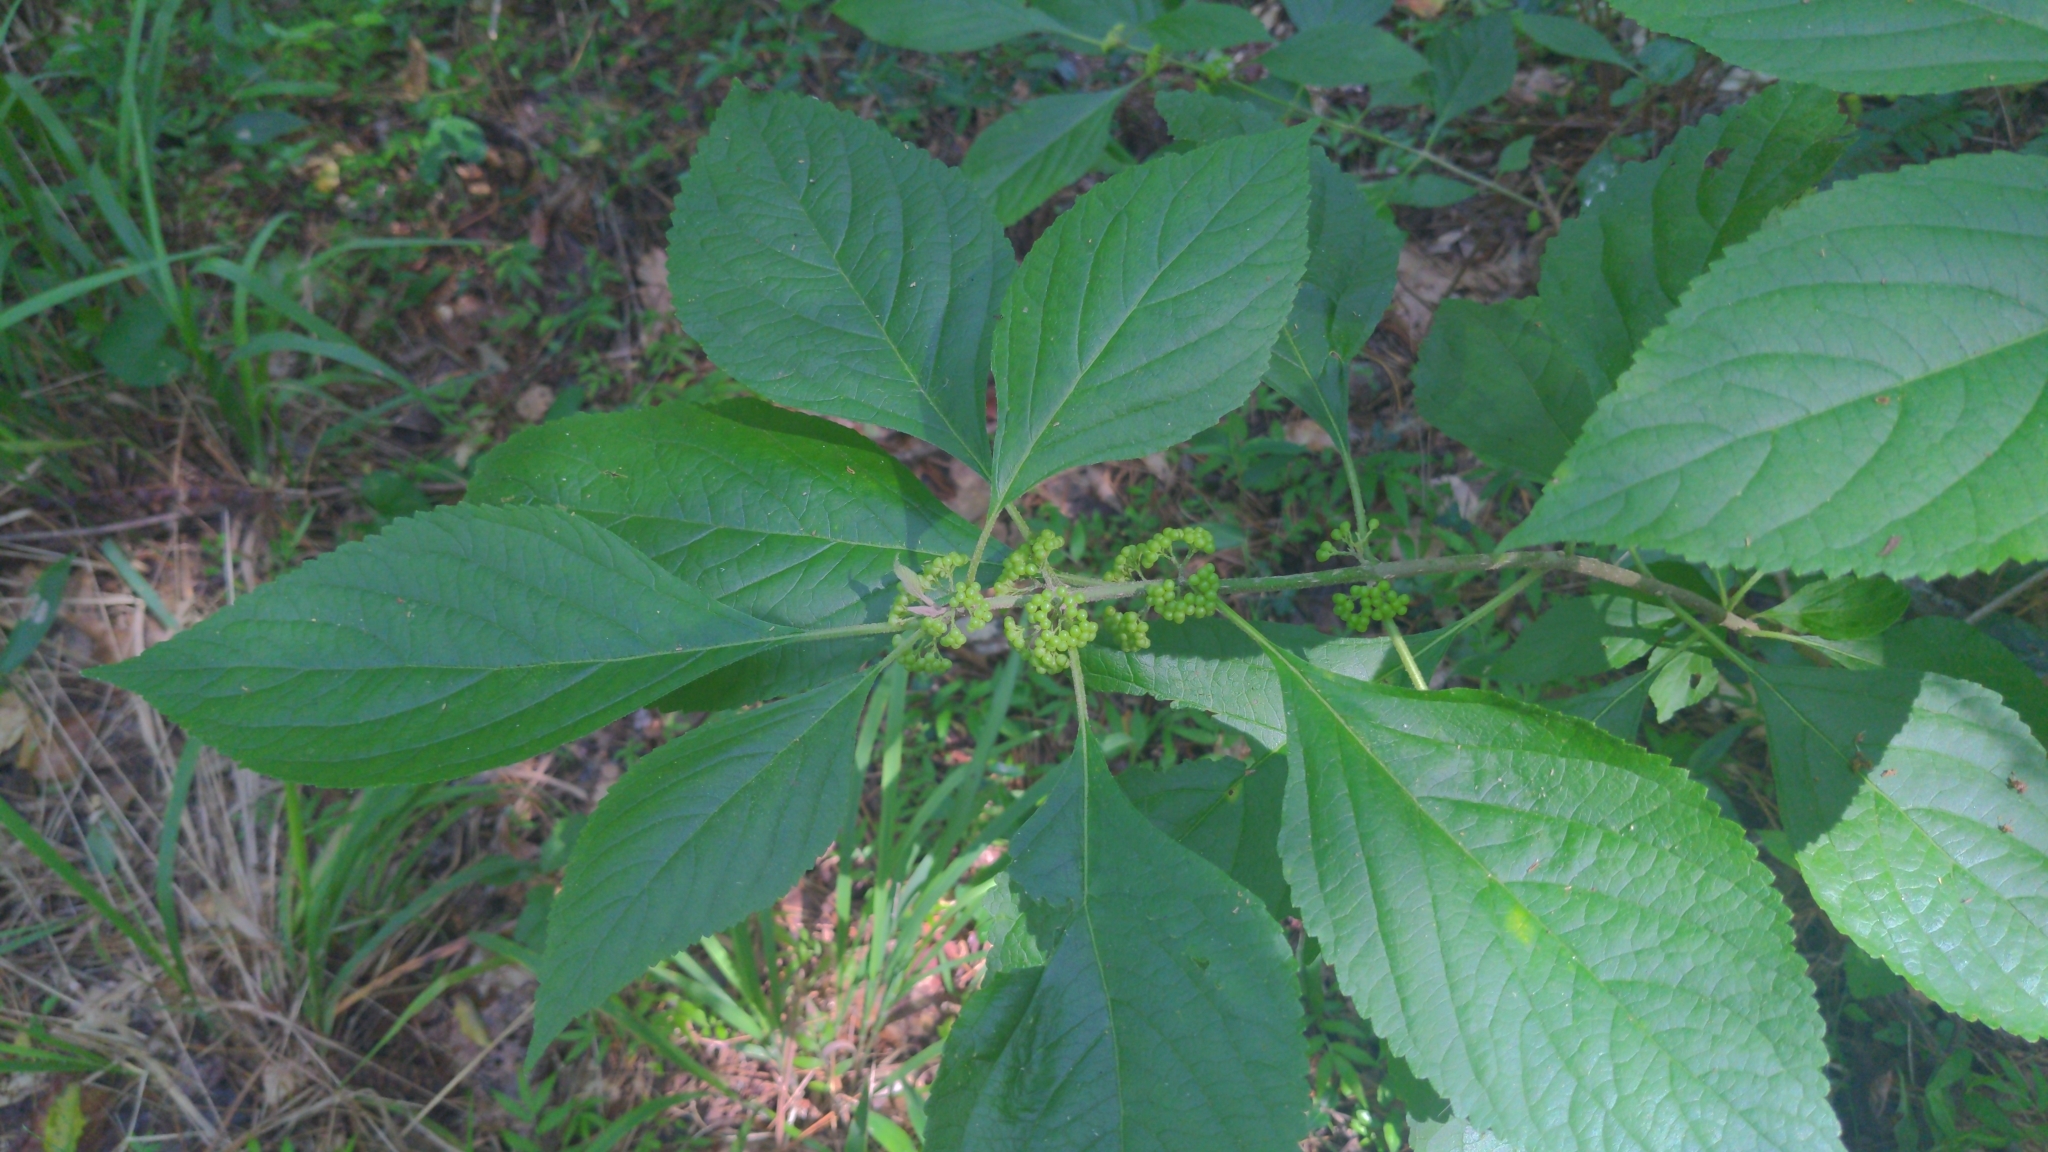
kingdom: Plantae
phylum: Tracheophyta
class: Magnoliopsida
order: Lamiales
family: Lamiaceae
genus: Callicarpa
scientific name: Callicarpa americana
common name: American beautyberry
